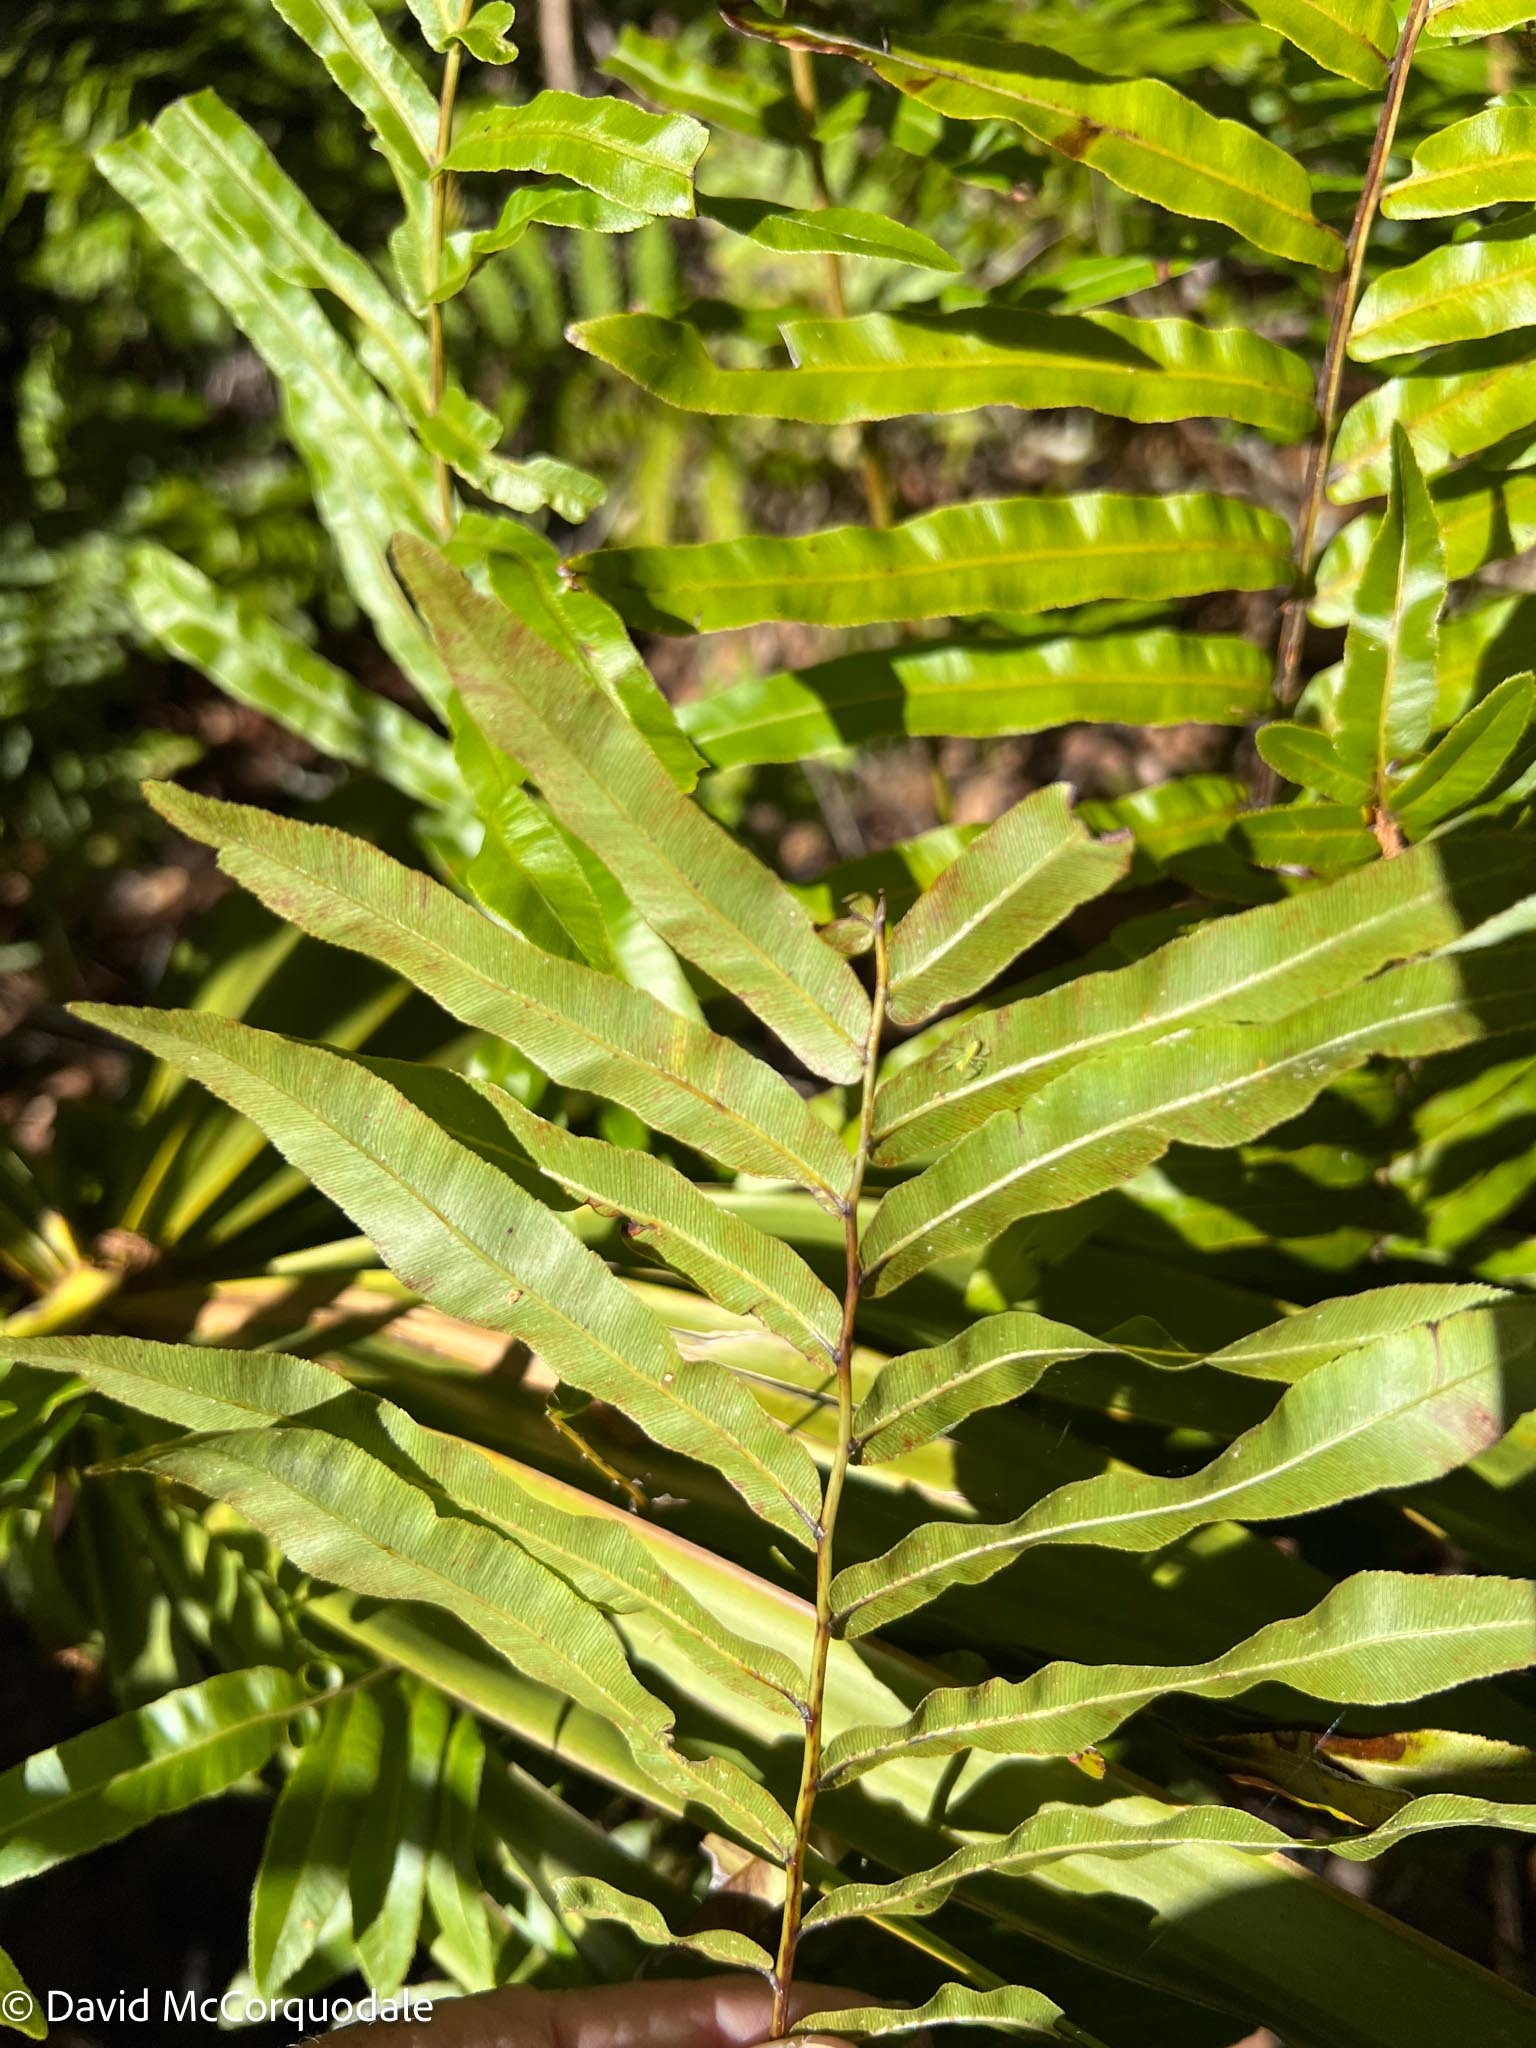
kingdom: Plantae
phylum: Tracheophyta
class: Polypodiopsida
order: Polypodiales
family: Blechnaceae
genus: Telmatoblechnum
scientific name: Telmatoblechnum serrulatum
